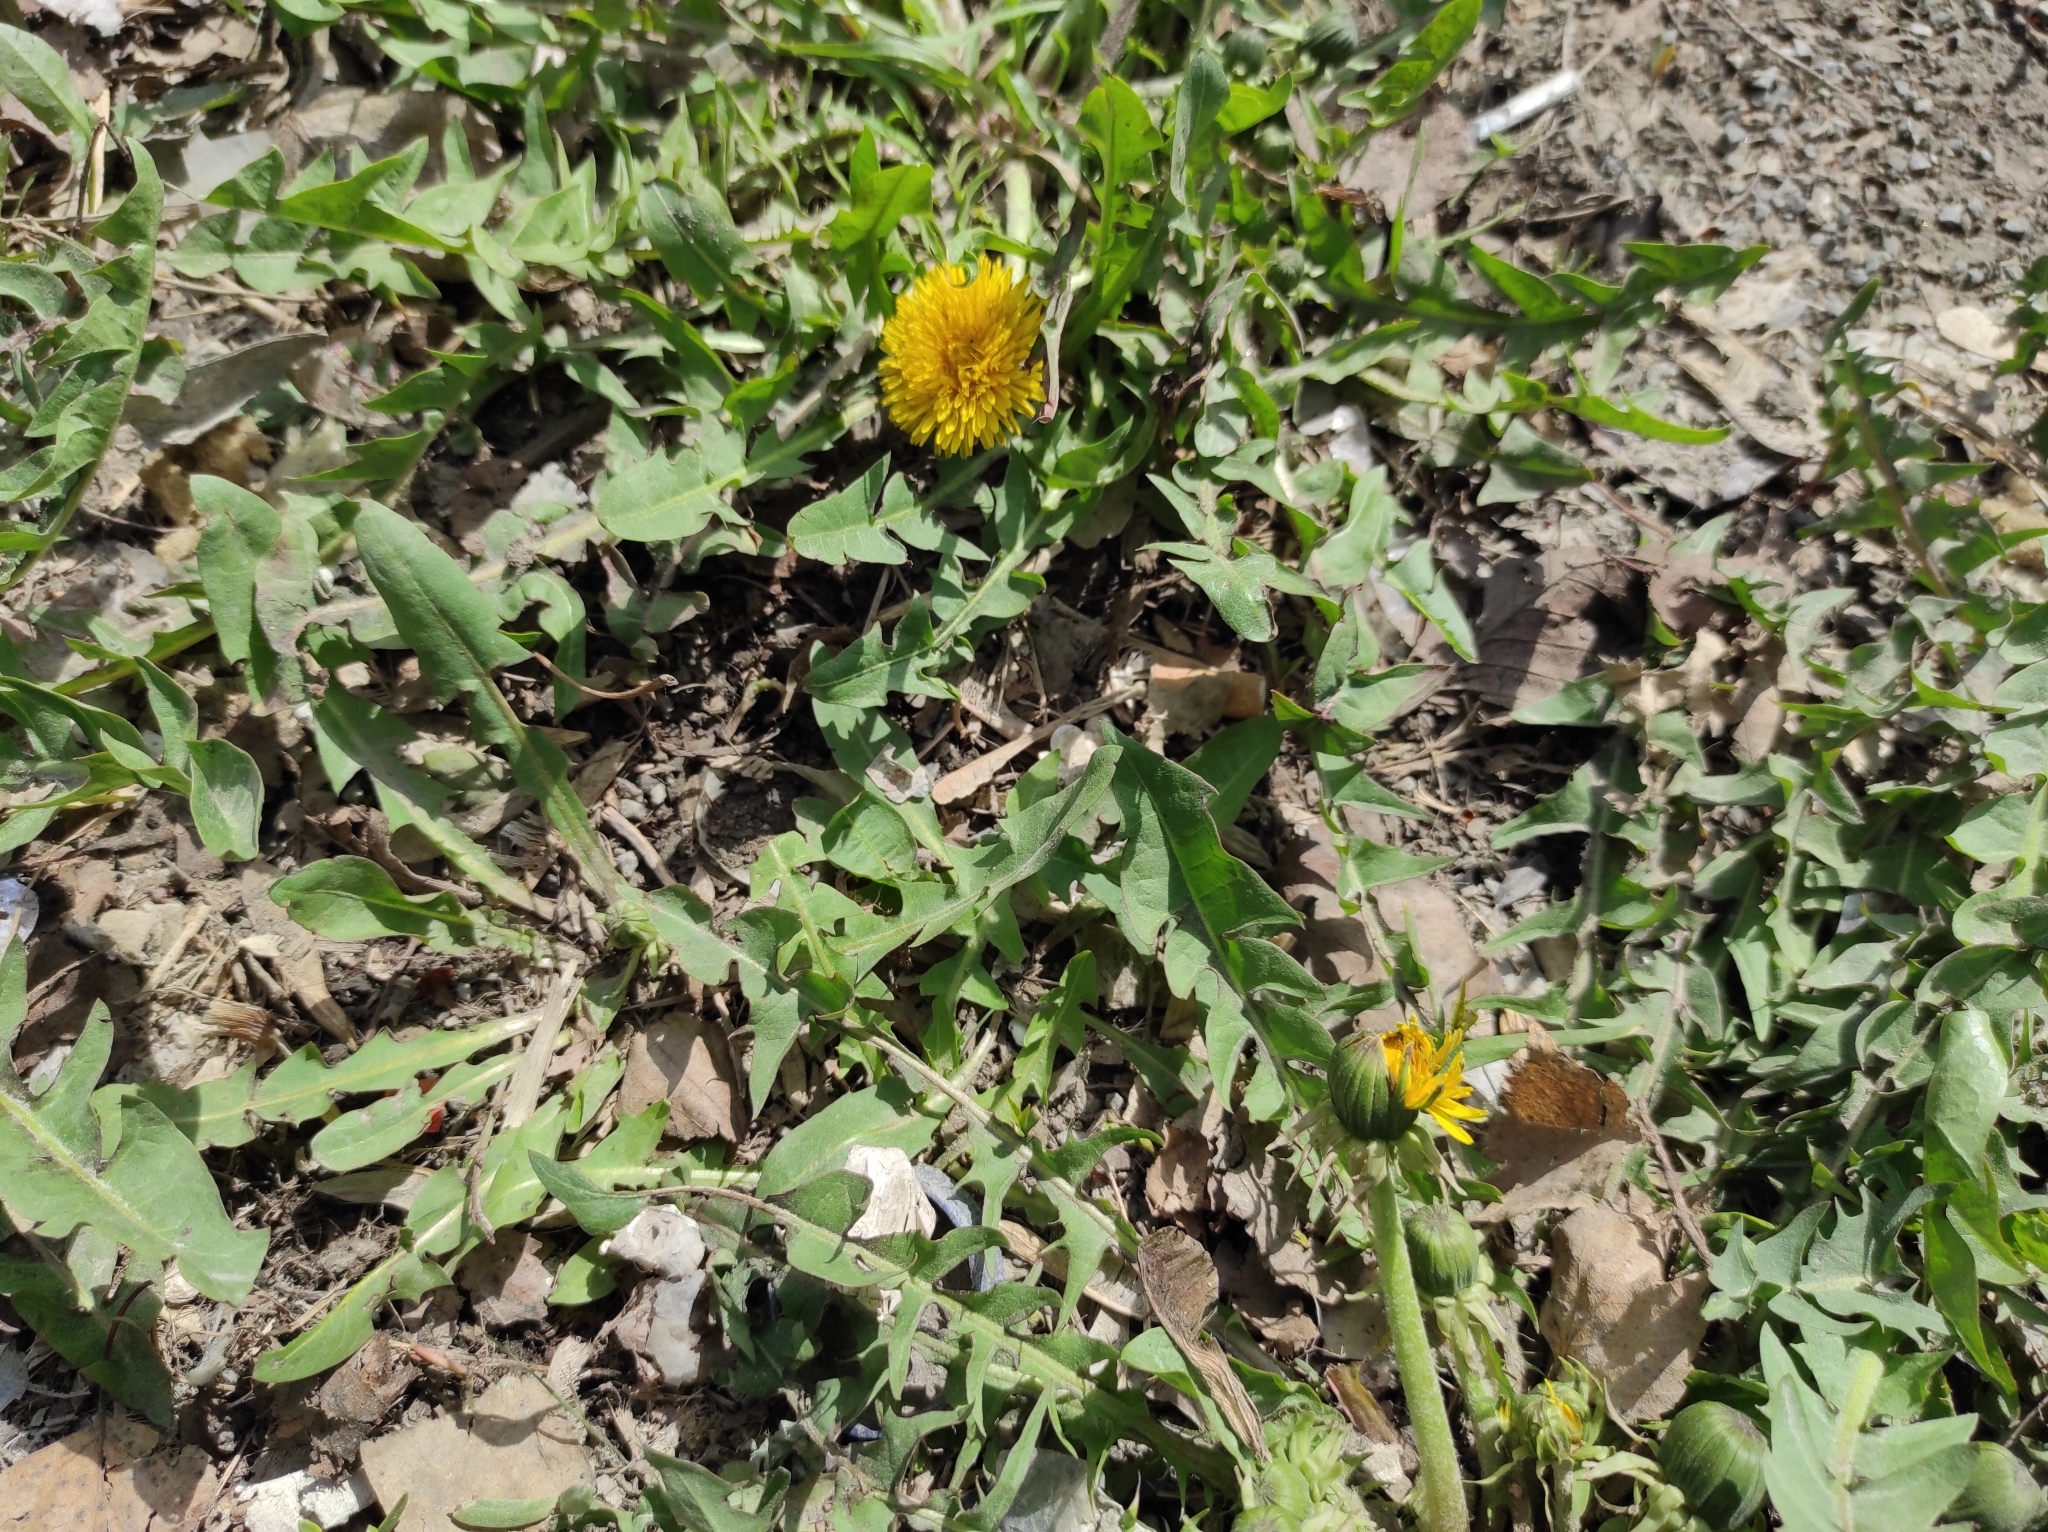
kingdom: Plantae
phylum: Tracheophyta
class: Magnoliopsida
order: Asterales
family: Asteraceae
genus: Taraxacum
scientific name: Taraxacum officinale
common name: Common dandelion
